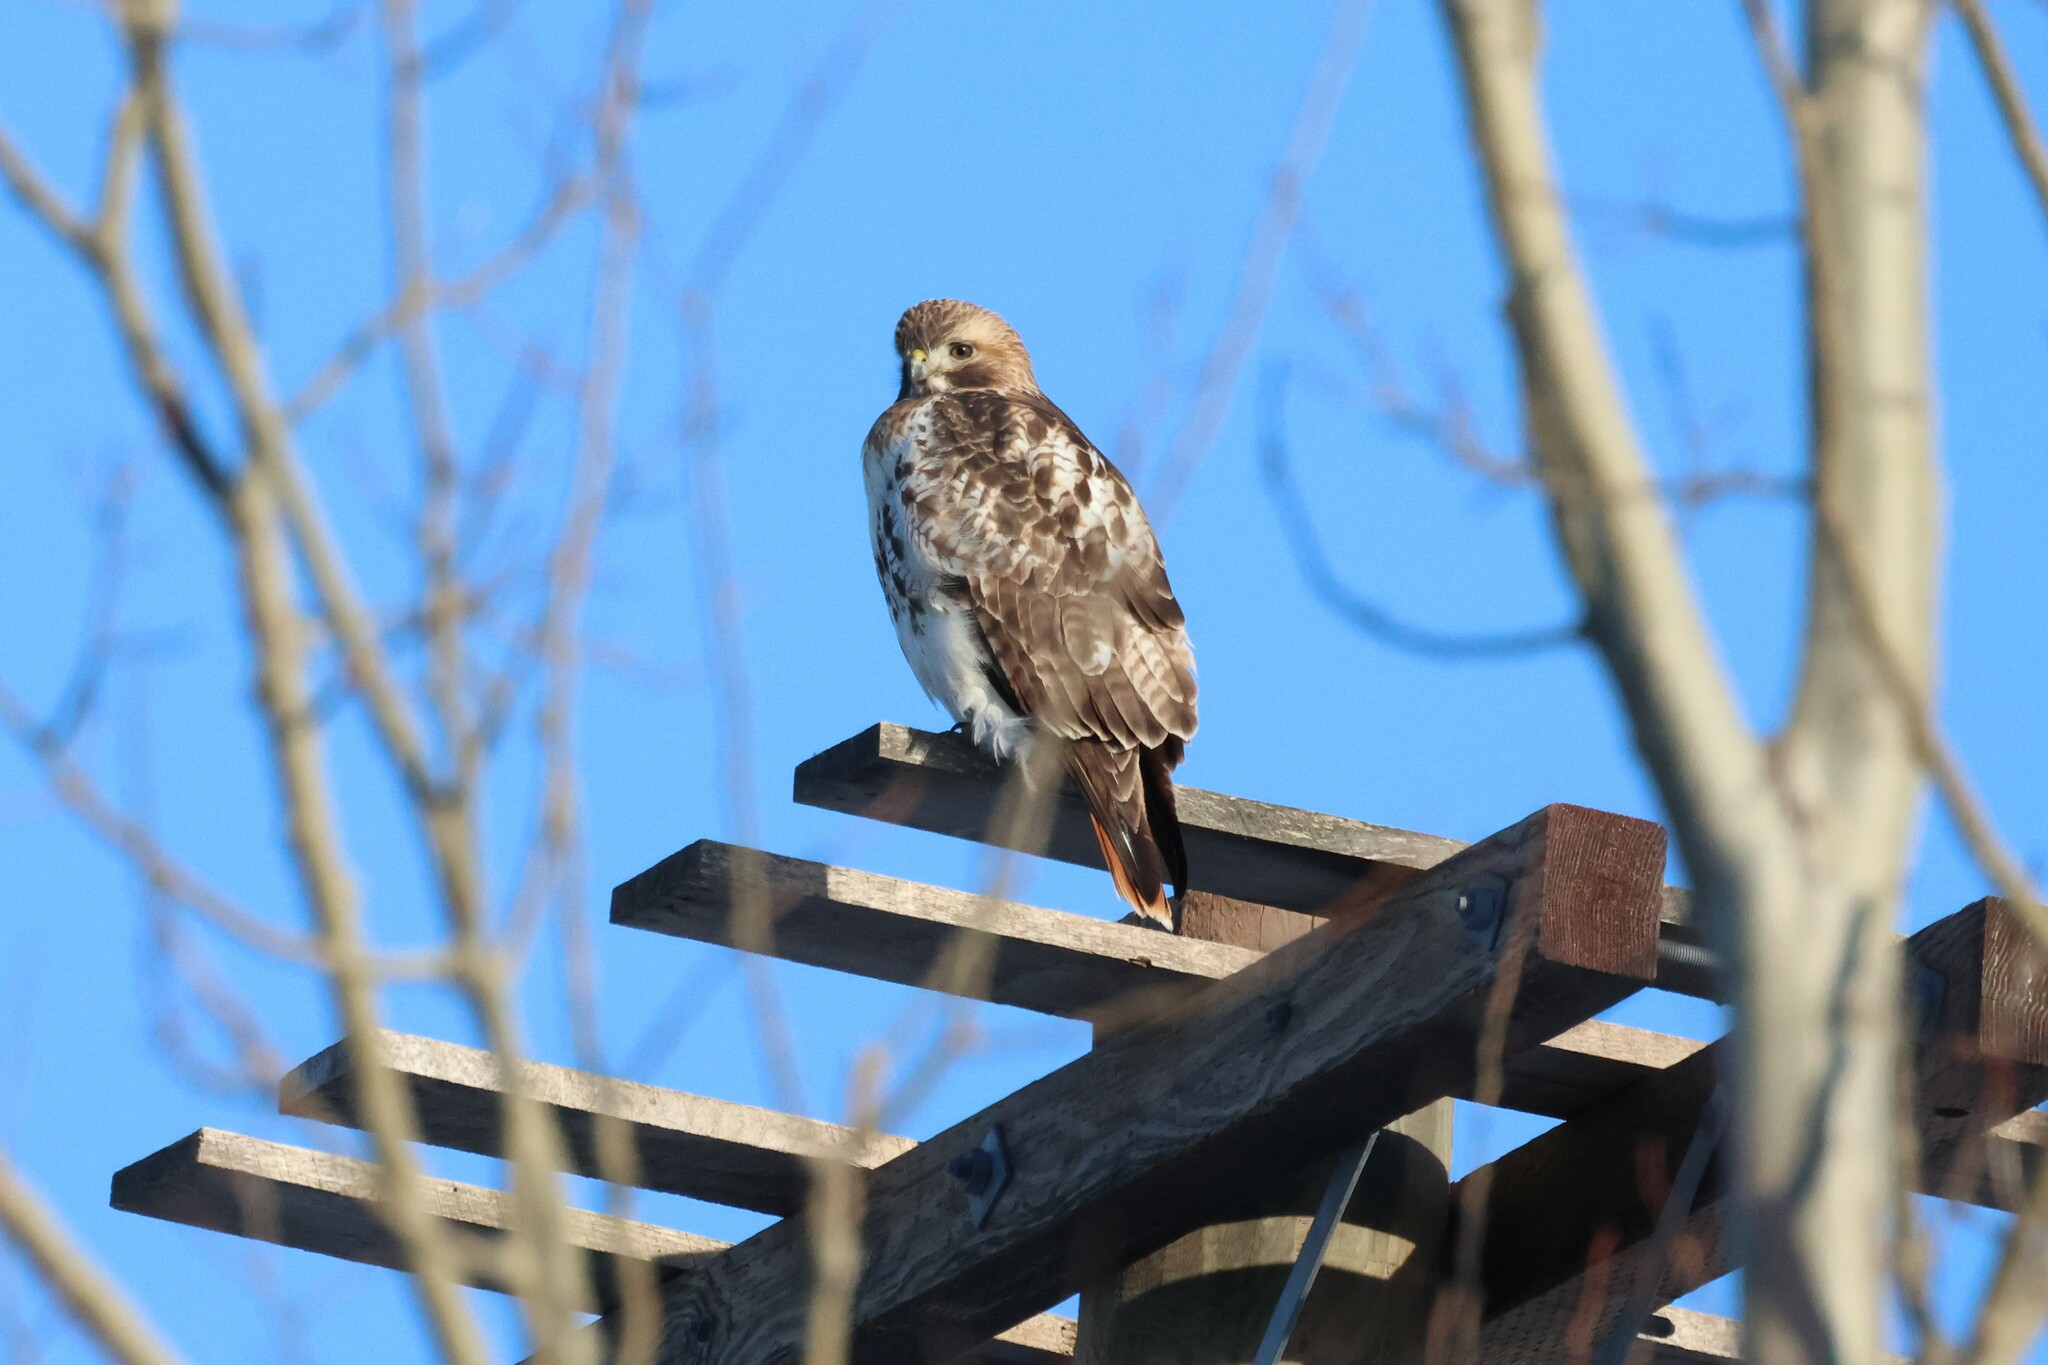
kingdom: Animalia
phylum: Chordata
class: Aves
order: Accipitriformes
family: Accipitridae
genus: Buteo
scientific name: Buteo jamaicensis
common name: Red-tailed hawk
